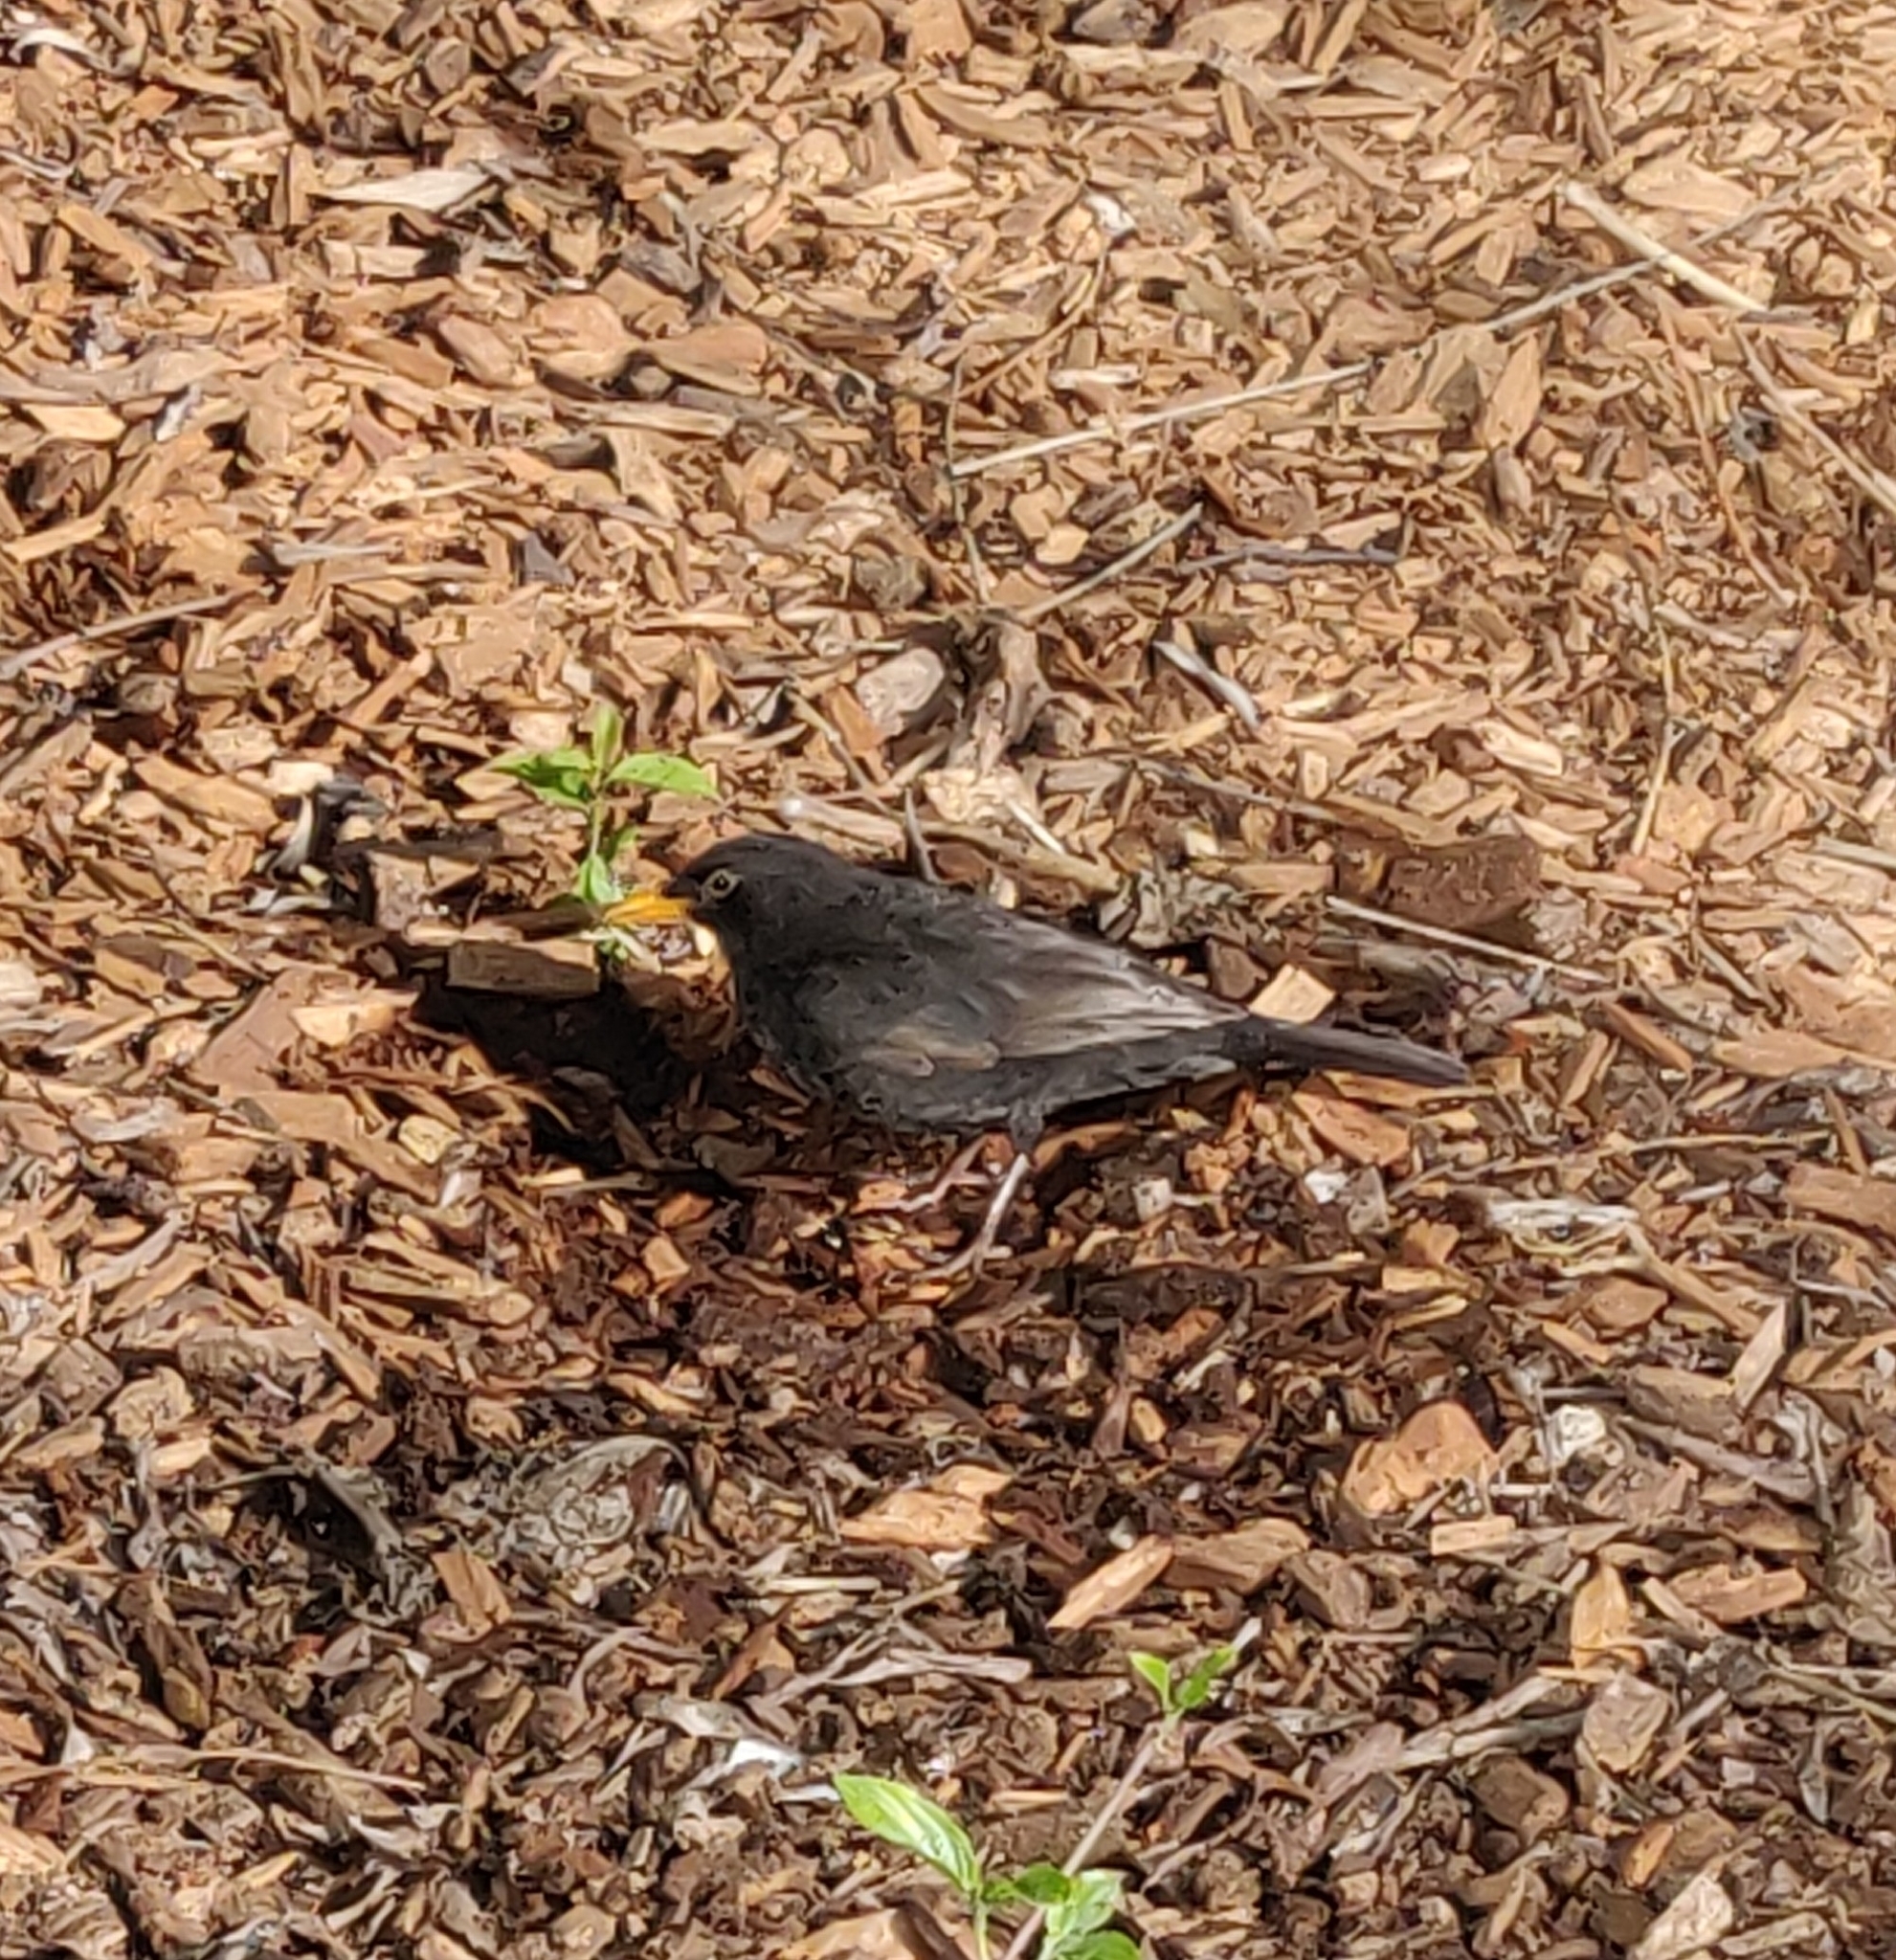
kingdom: Animalia
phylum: Chordata
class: Aves
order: Passeriformes
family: Turdidae
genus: Turdus
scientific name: Turdus merula
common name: Common blackbird
